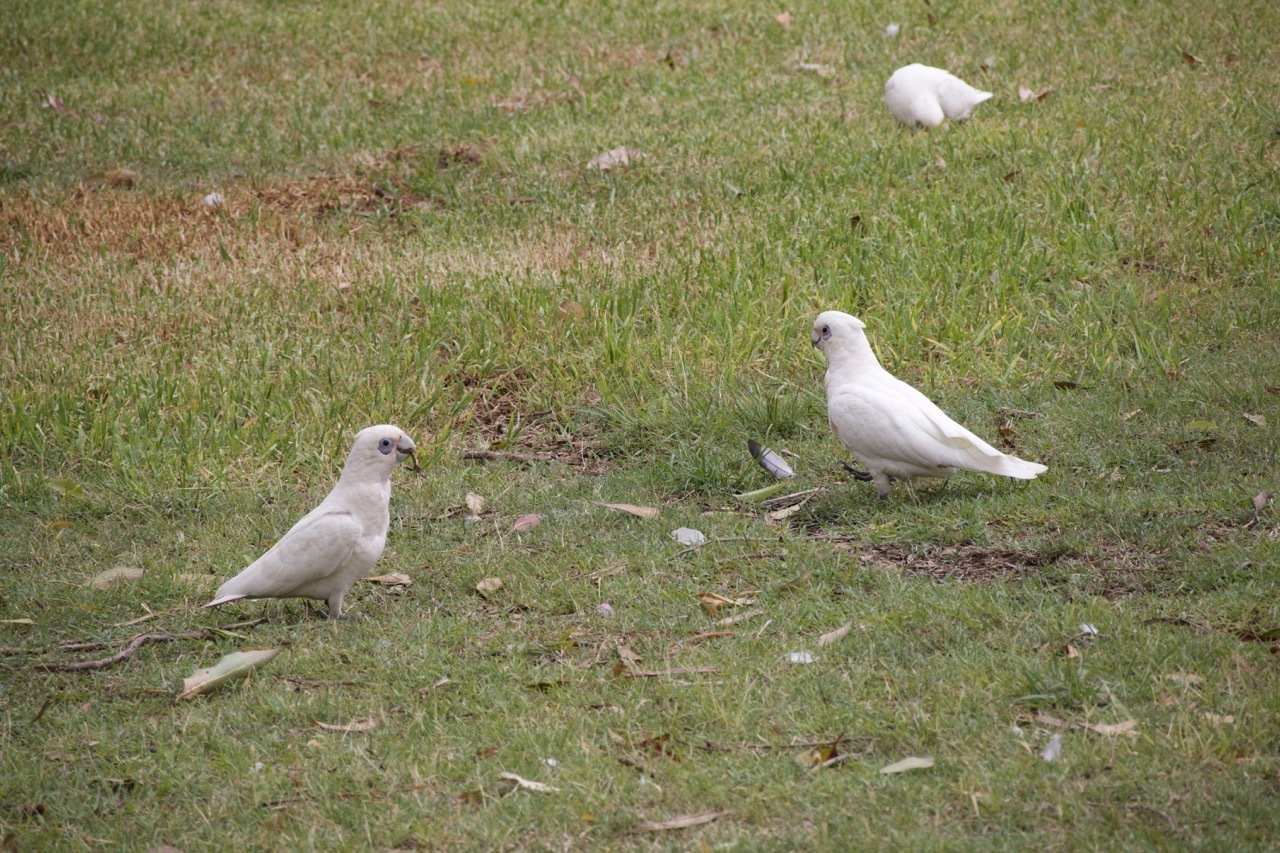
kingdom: Animalia
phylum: Chordata
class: Aves
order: Psittaciformes
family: Psittacidae
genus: Cacatua
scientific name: Cacatua sanguinea
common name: Little corella
